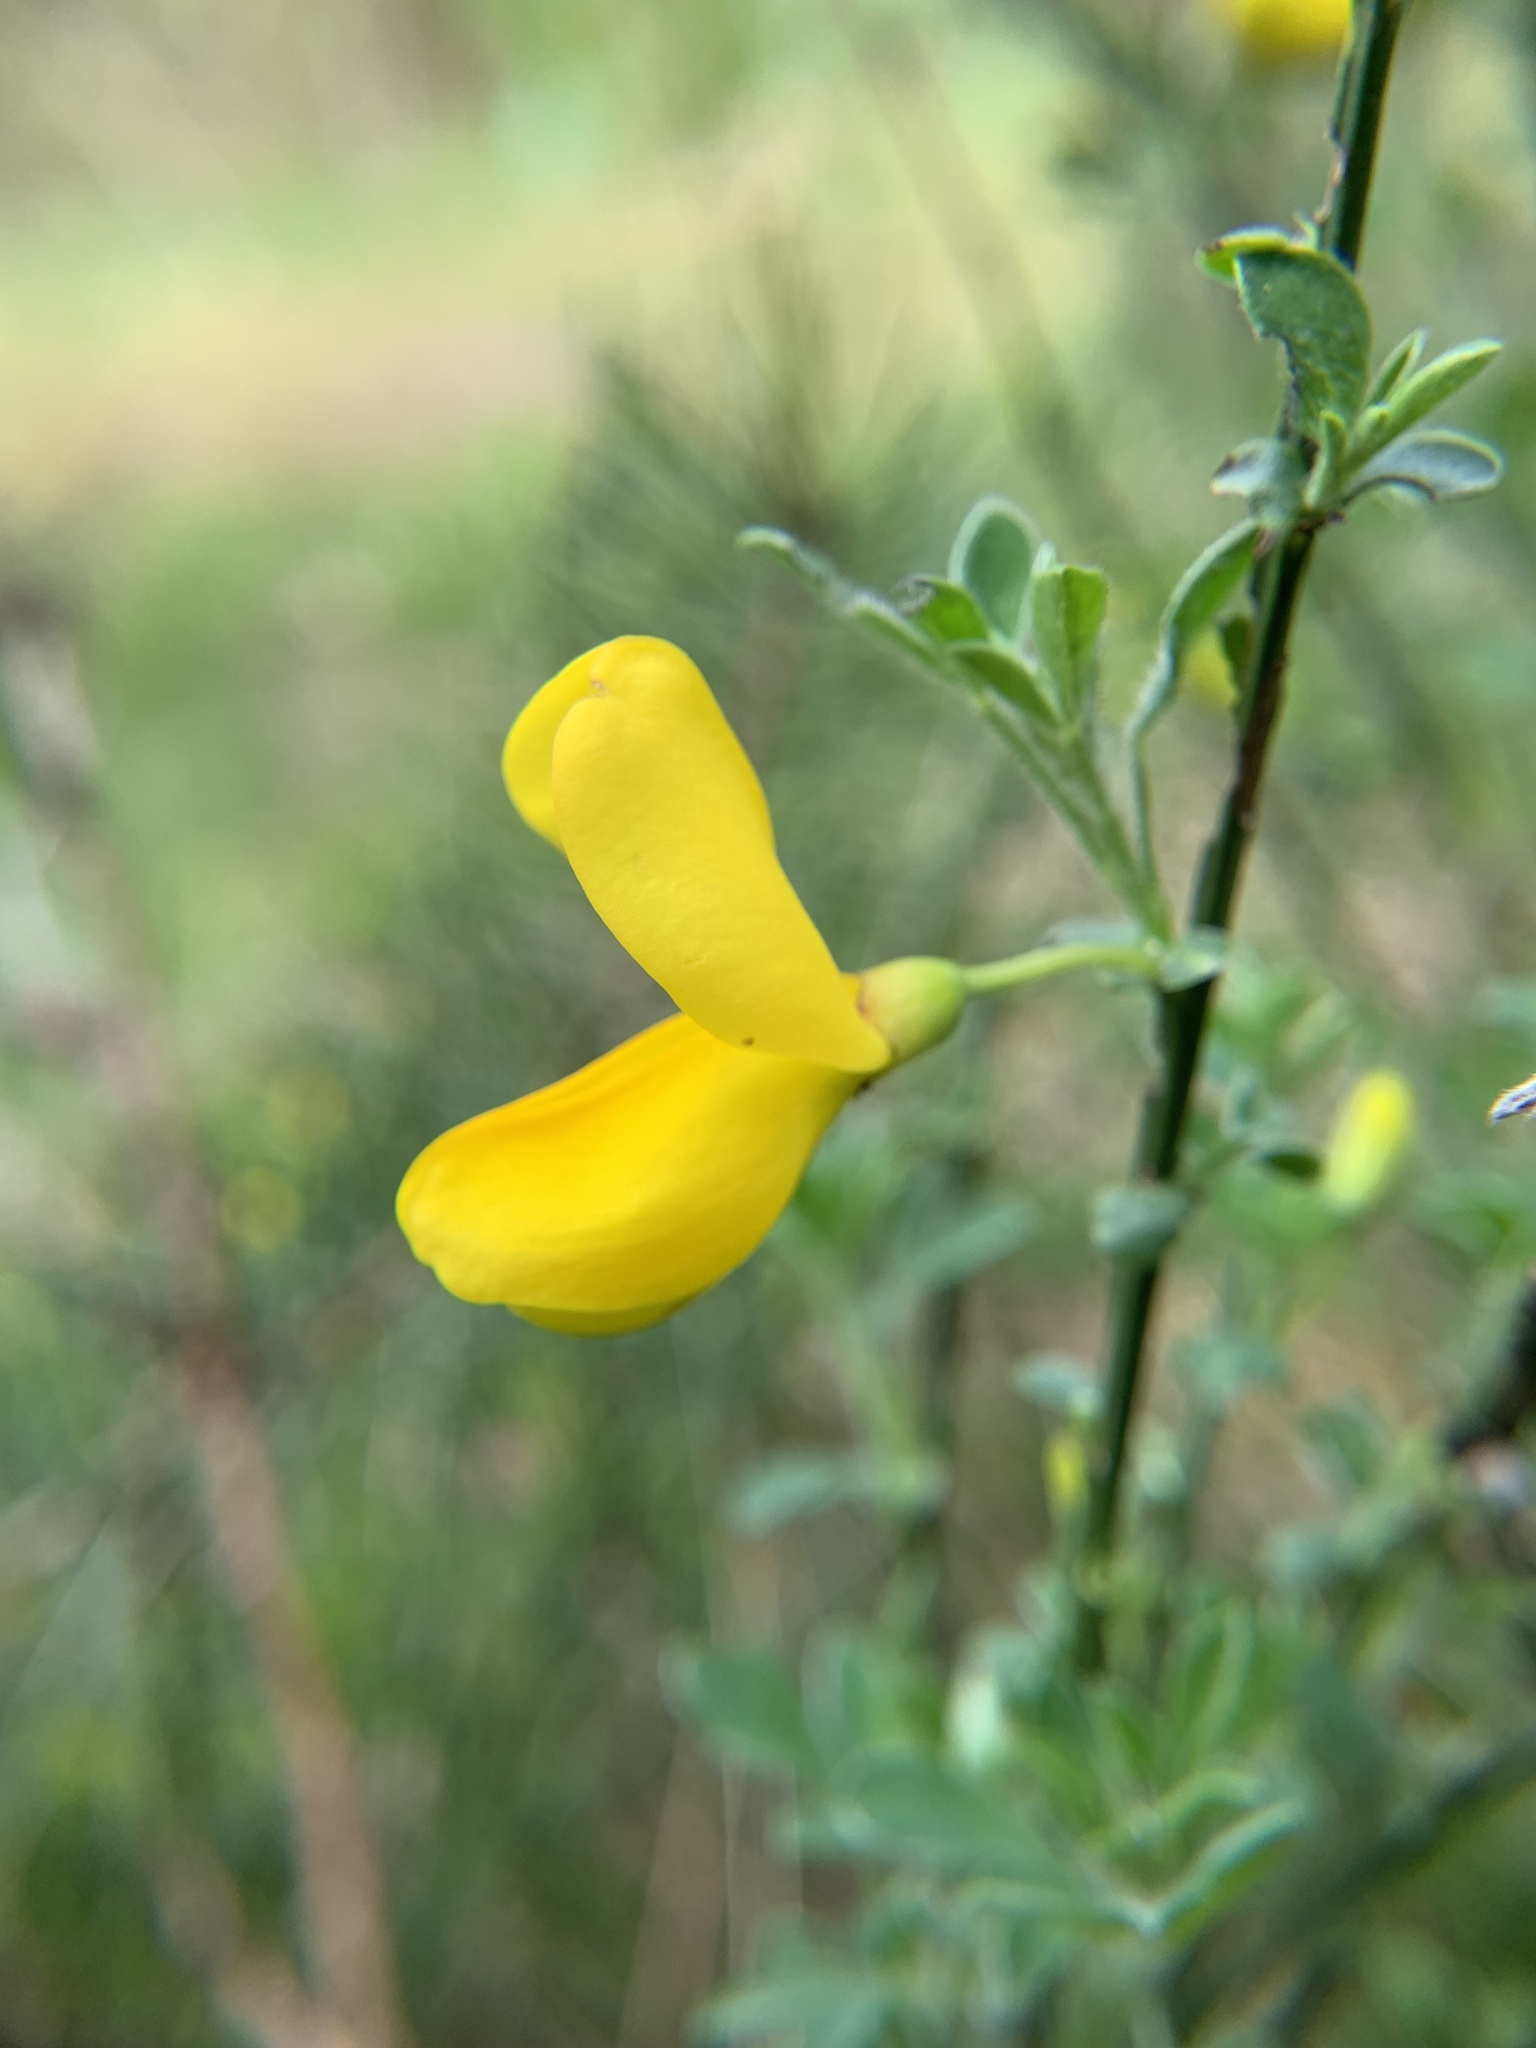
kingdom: Plantae
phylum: Tracheophyta
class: Magnoliopsida
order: Fabales
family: Fabaceae
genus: Cytisus
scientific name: Cytisus scoparius
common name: Scotch broom
